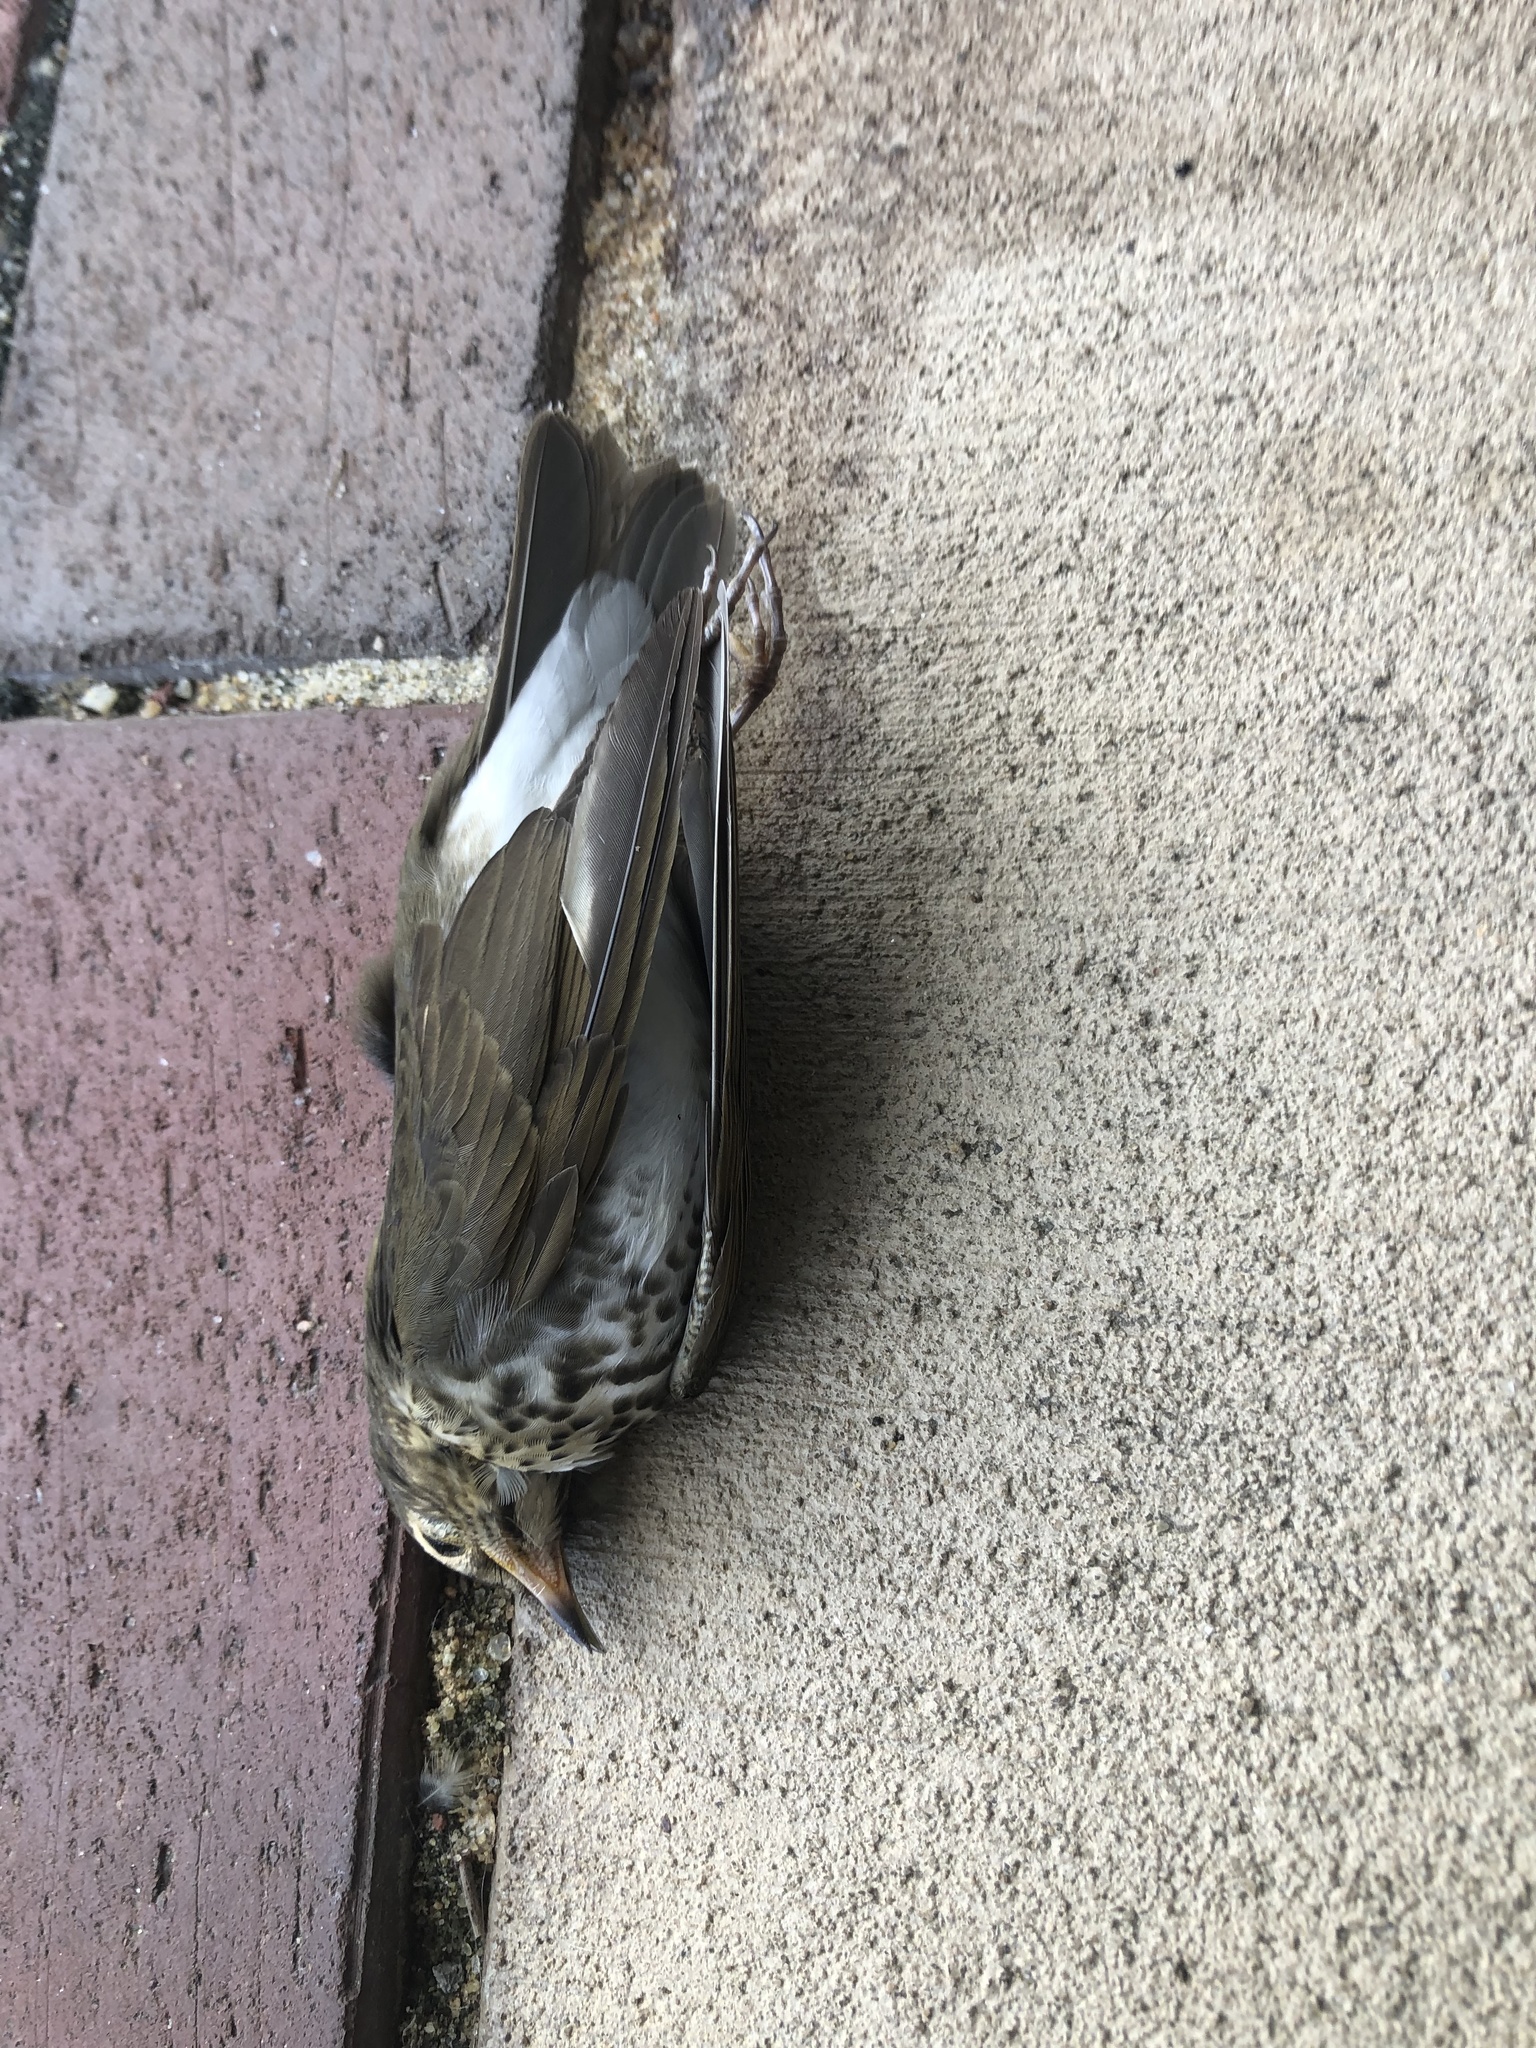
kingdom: Animalia
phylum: Chordata
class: Aves
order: Passeriformes
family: Turdidae
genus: Catharus
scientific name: Catharus ustulatus
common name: Swainson's thrush
